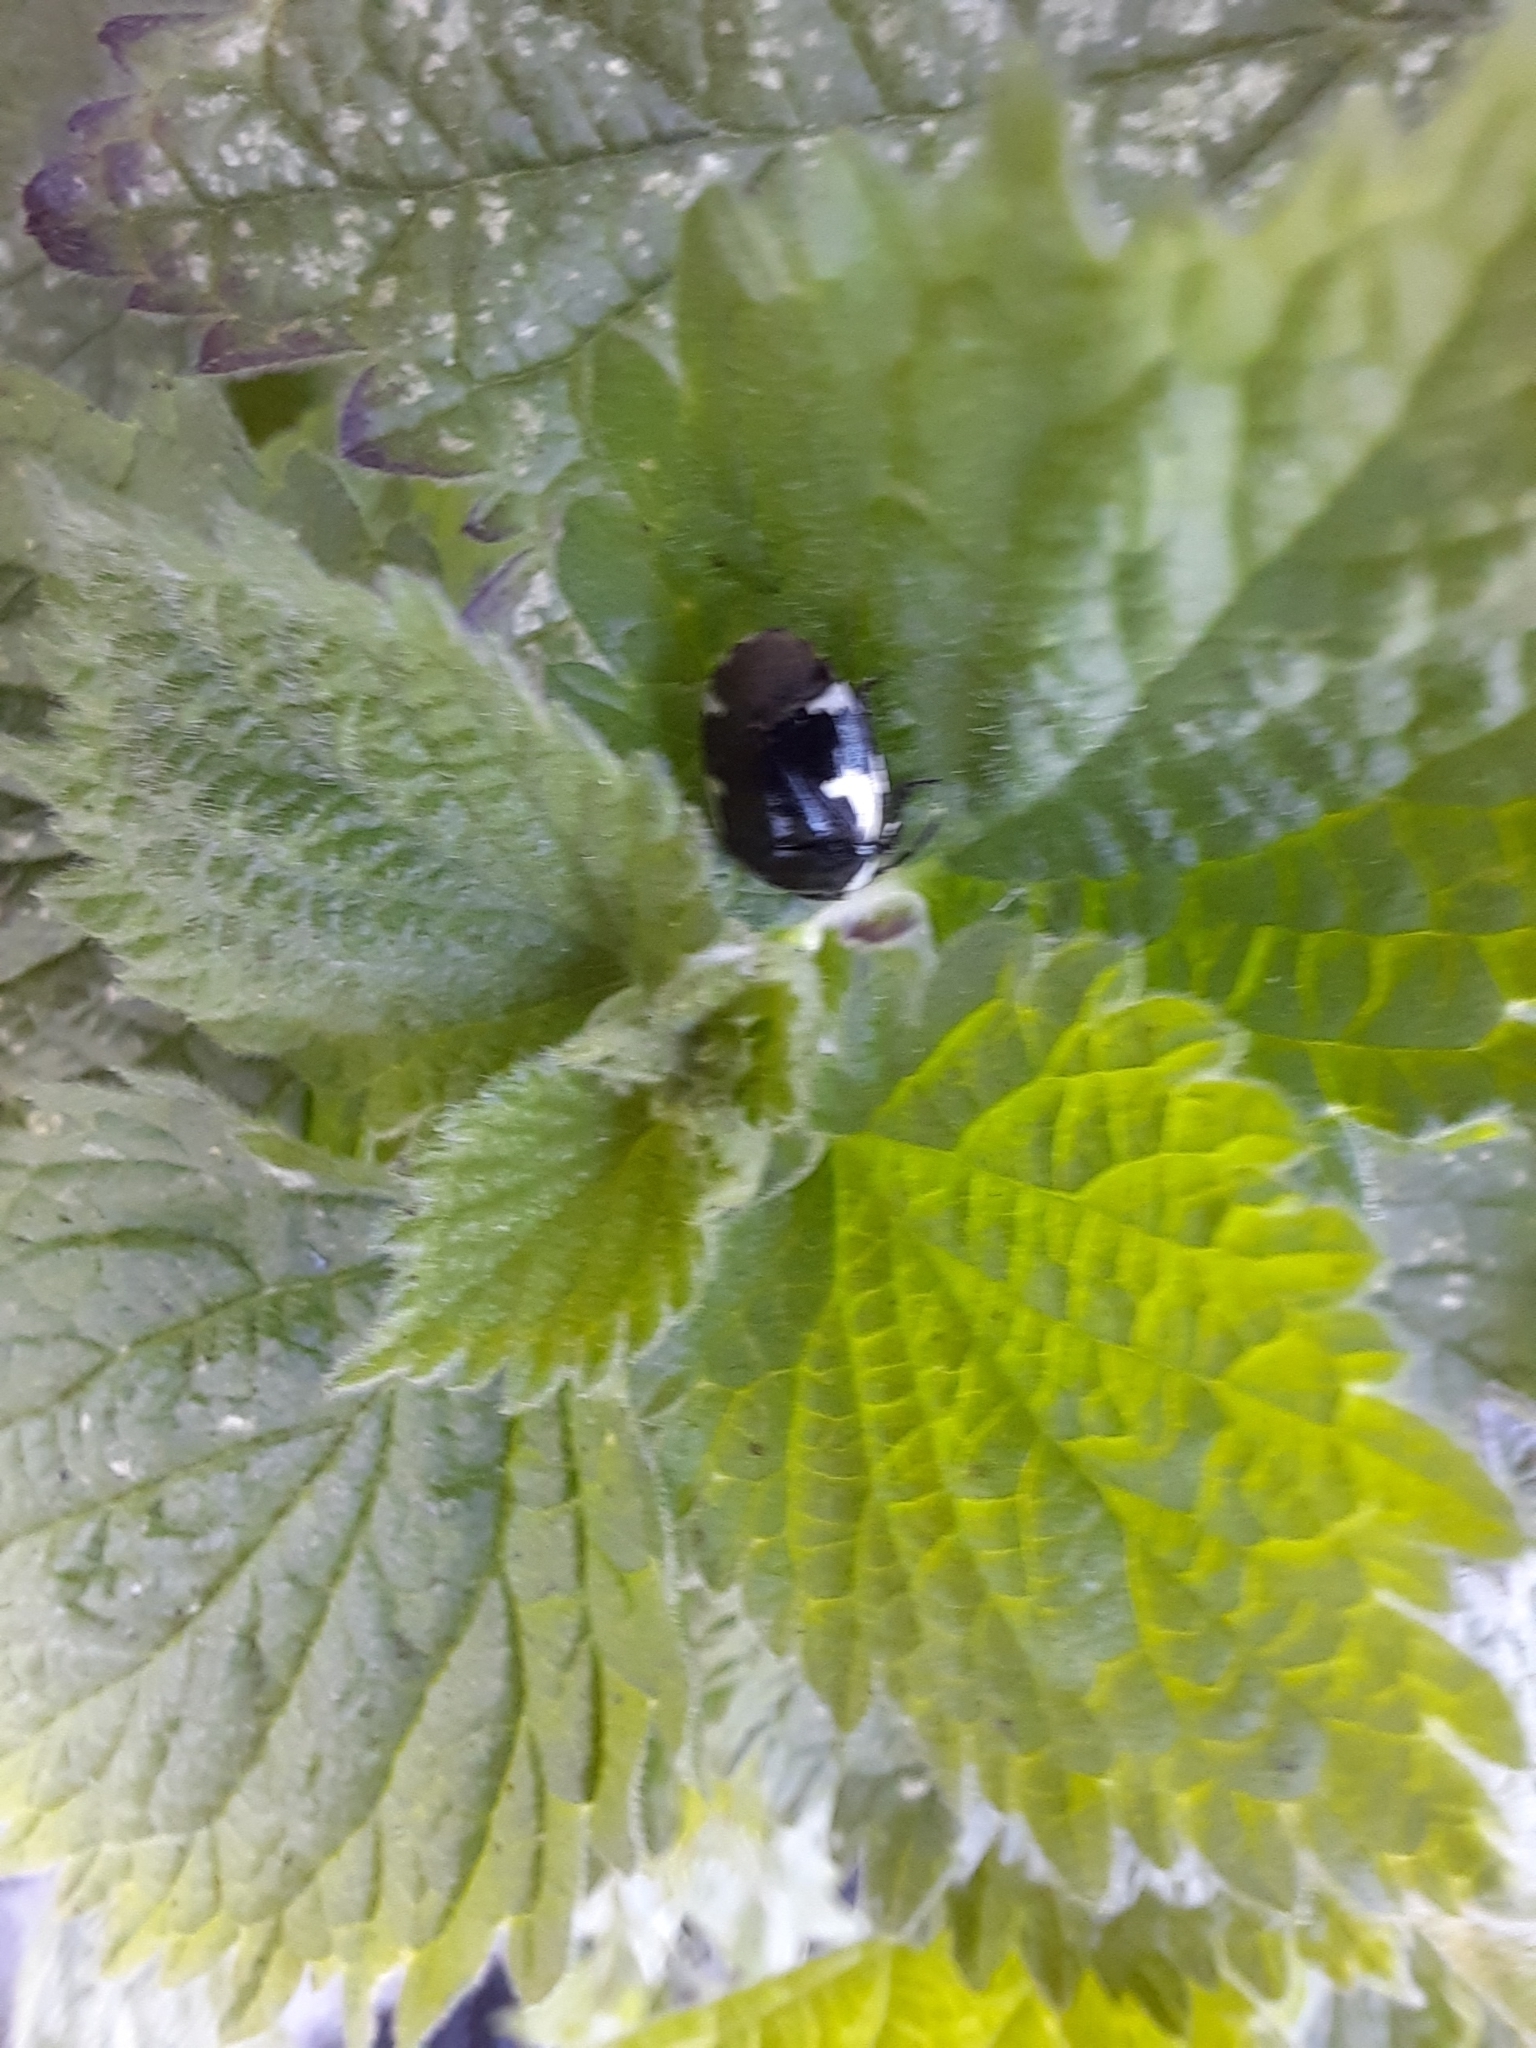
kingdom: Animalia
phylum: Arthropoda
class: Insecta
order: Hemiptera
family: Cydnidae
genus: Tritomegas
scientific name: Tritomegas sexmaculatus
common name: Rambur's pied shieldbug
